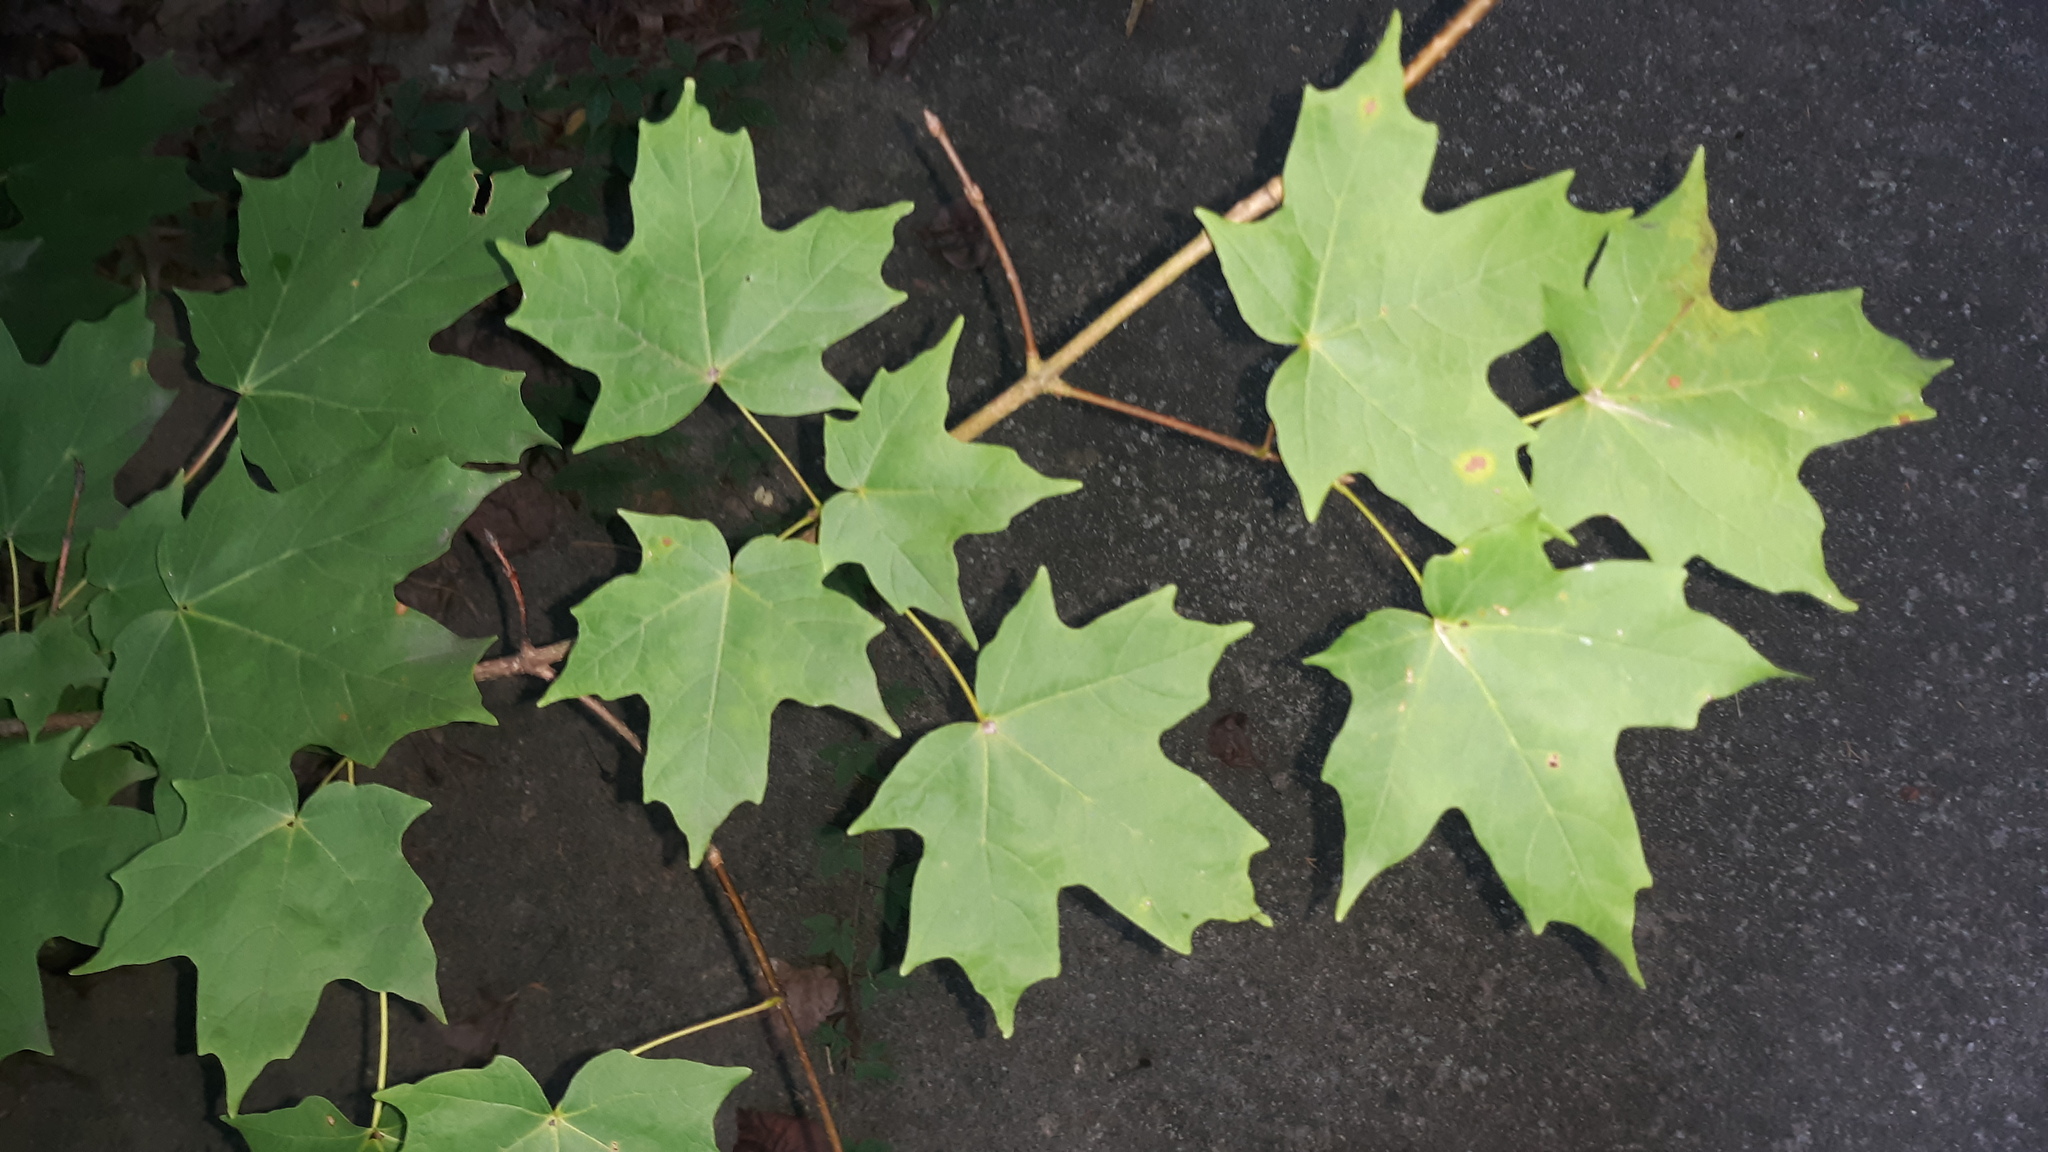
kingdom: Plantae
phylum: Tracheophyta
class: Magnoliopsida
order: Sapindales
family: Sapindaceae
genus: Acer
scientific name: Acer saccharum
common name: Sugar maple
